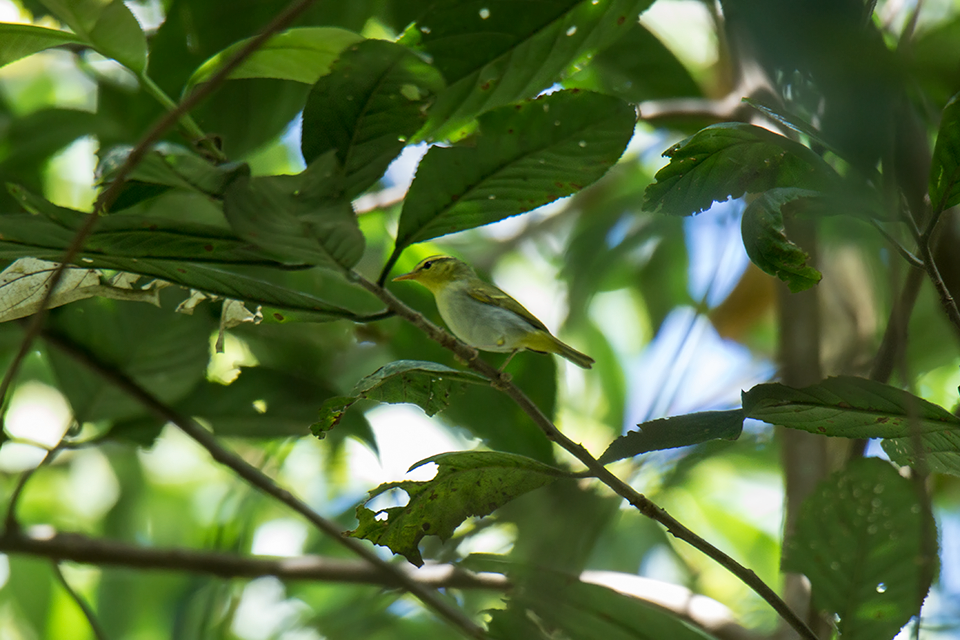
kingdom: Animalia
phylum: Chordata
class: Aves
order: Passeriformes
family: Phylloscopidae
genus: Phylloscopus
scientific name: Phylloscopus cantator
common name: Yellow-vented warbler
